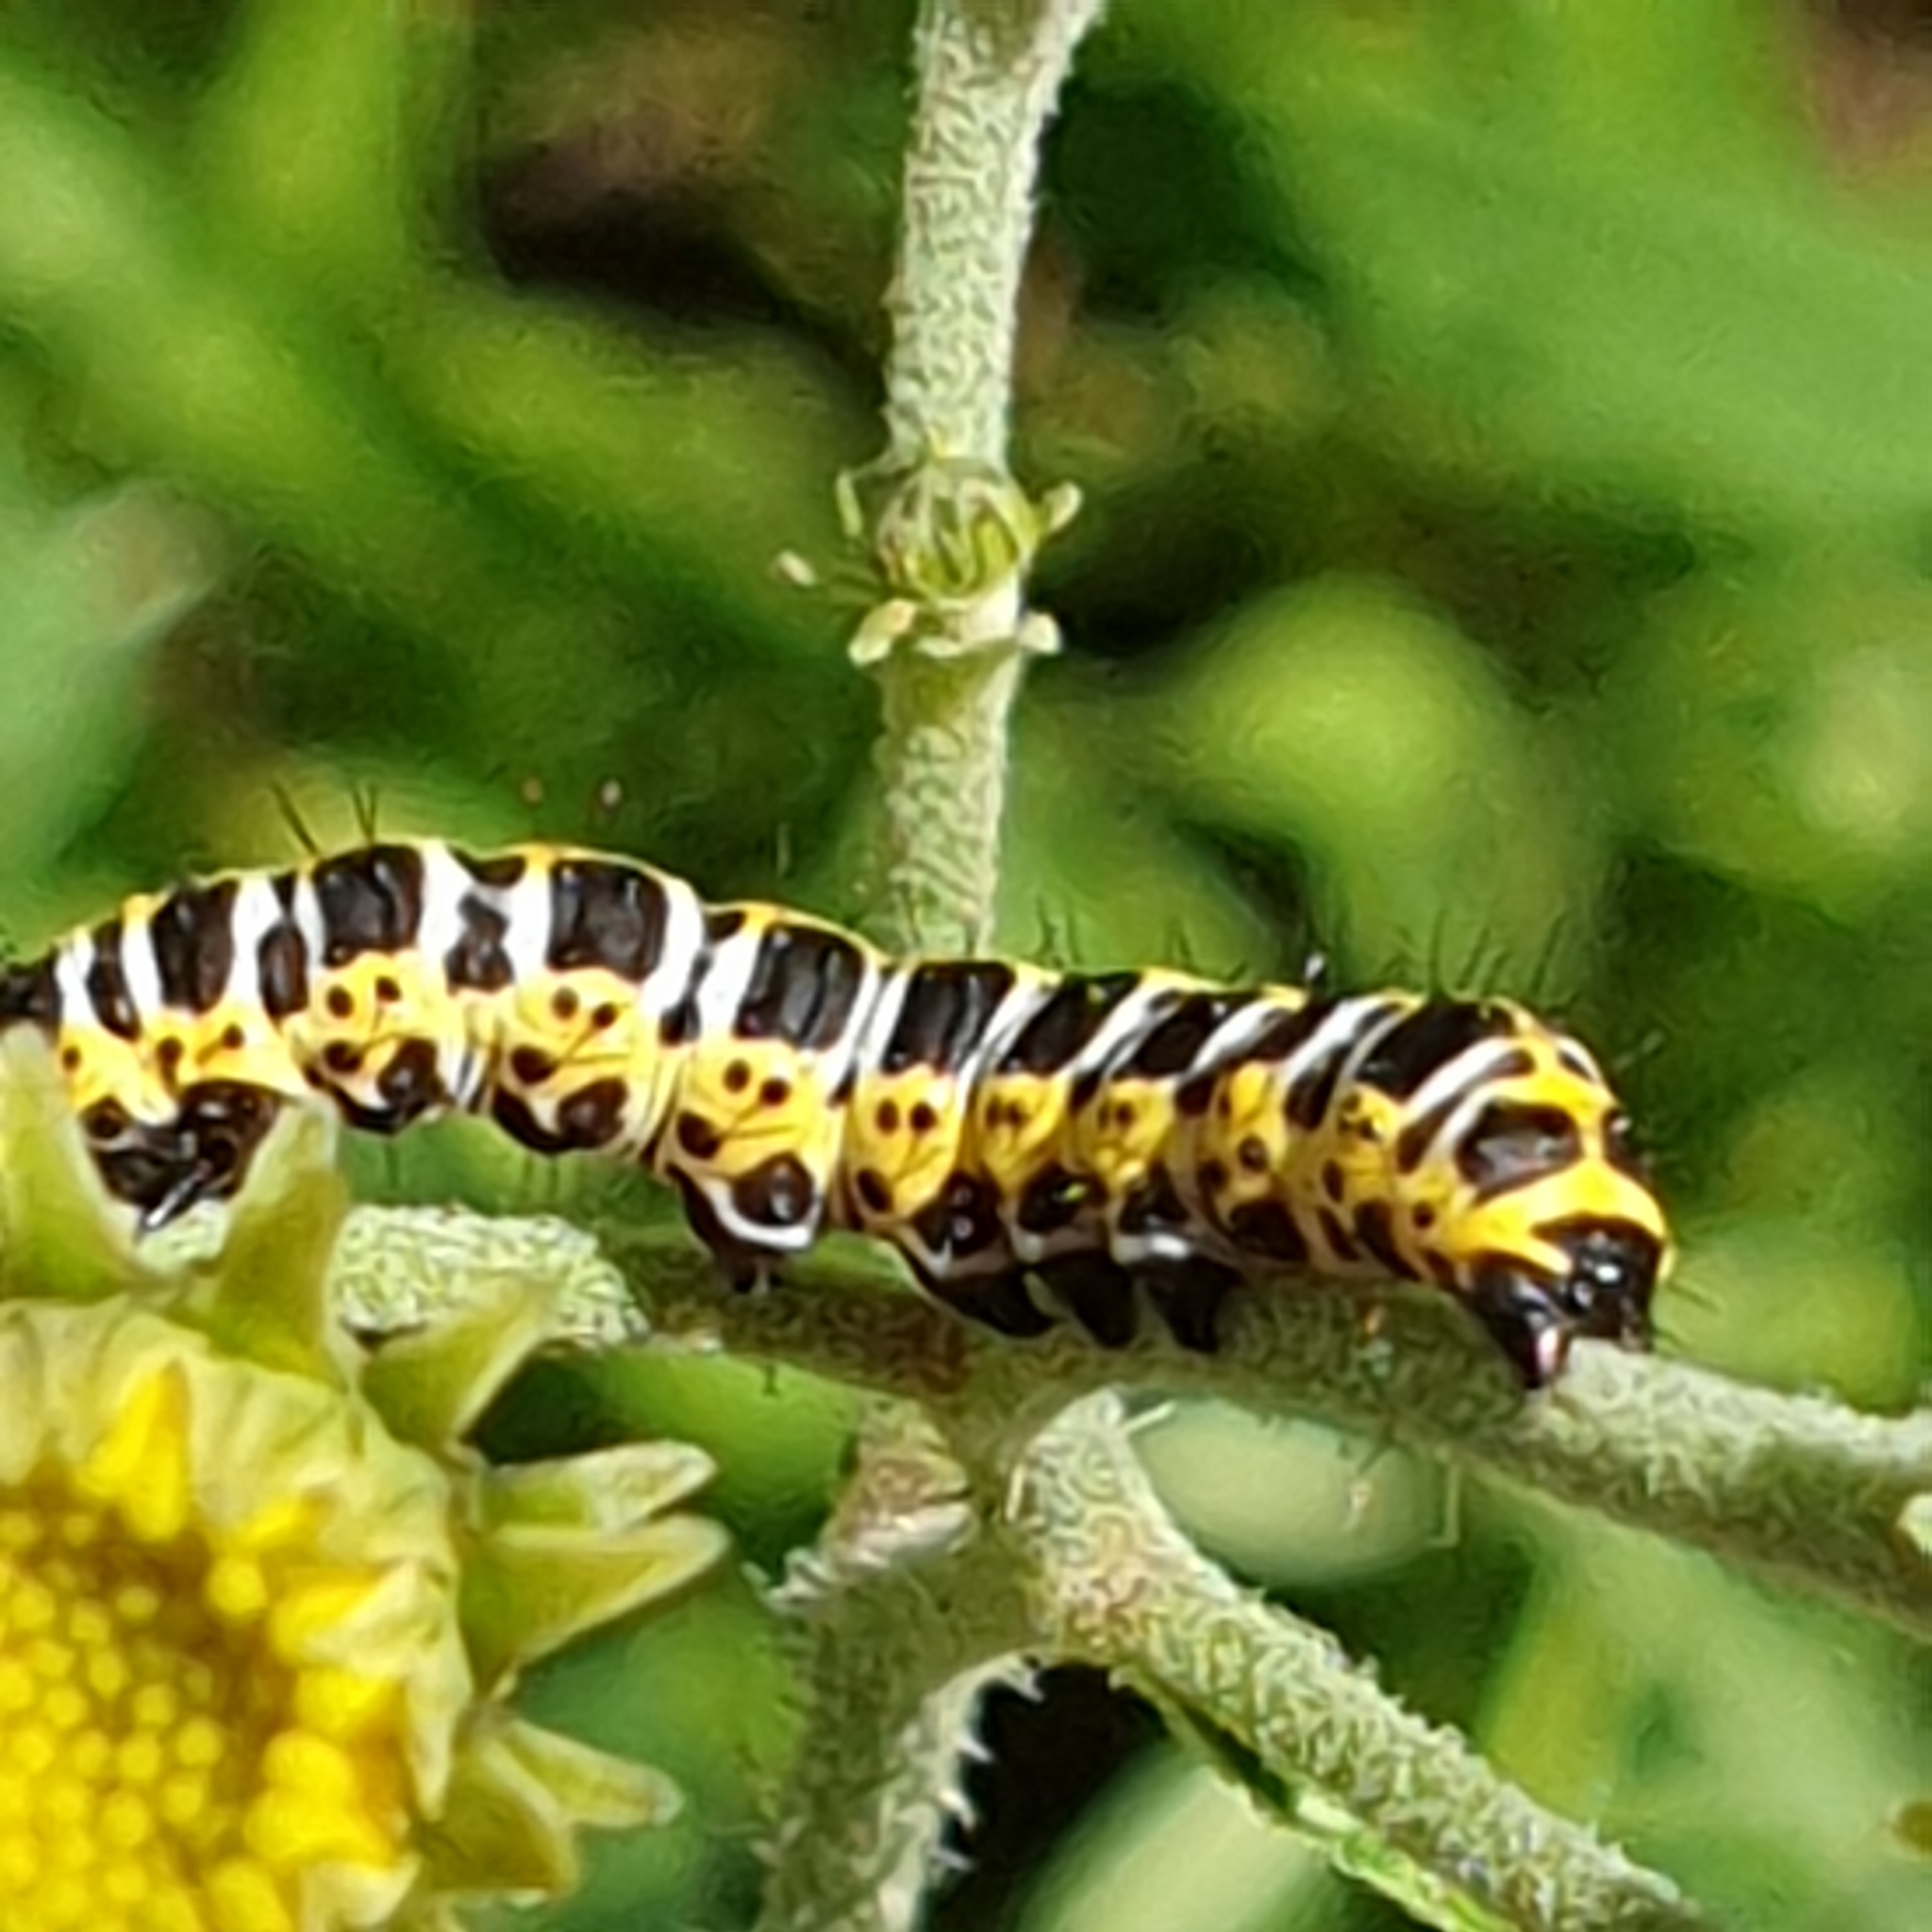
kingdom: Animalia
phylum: Arthropoda
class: Insecta
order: Lepidoptera
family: Noctuidae
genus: Cucullia
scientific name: Cucullia lactucae
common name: Lettuce shark
